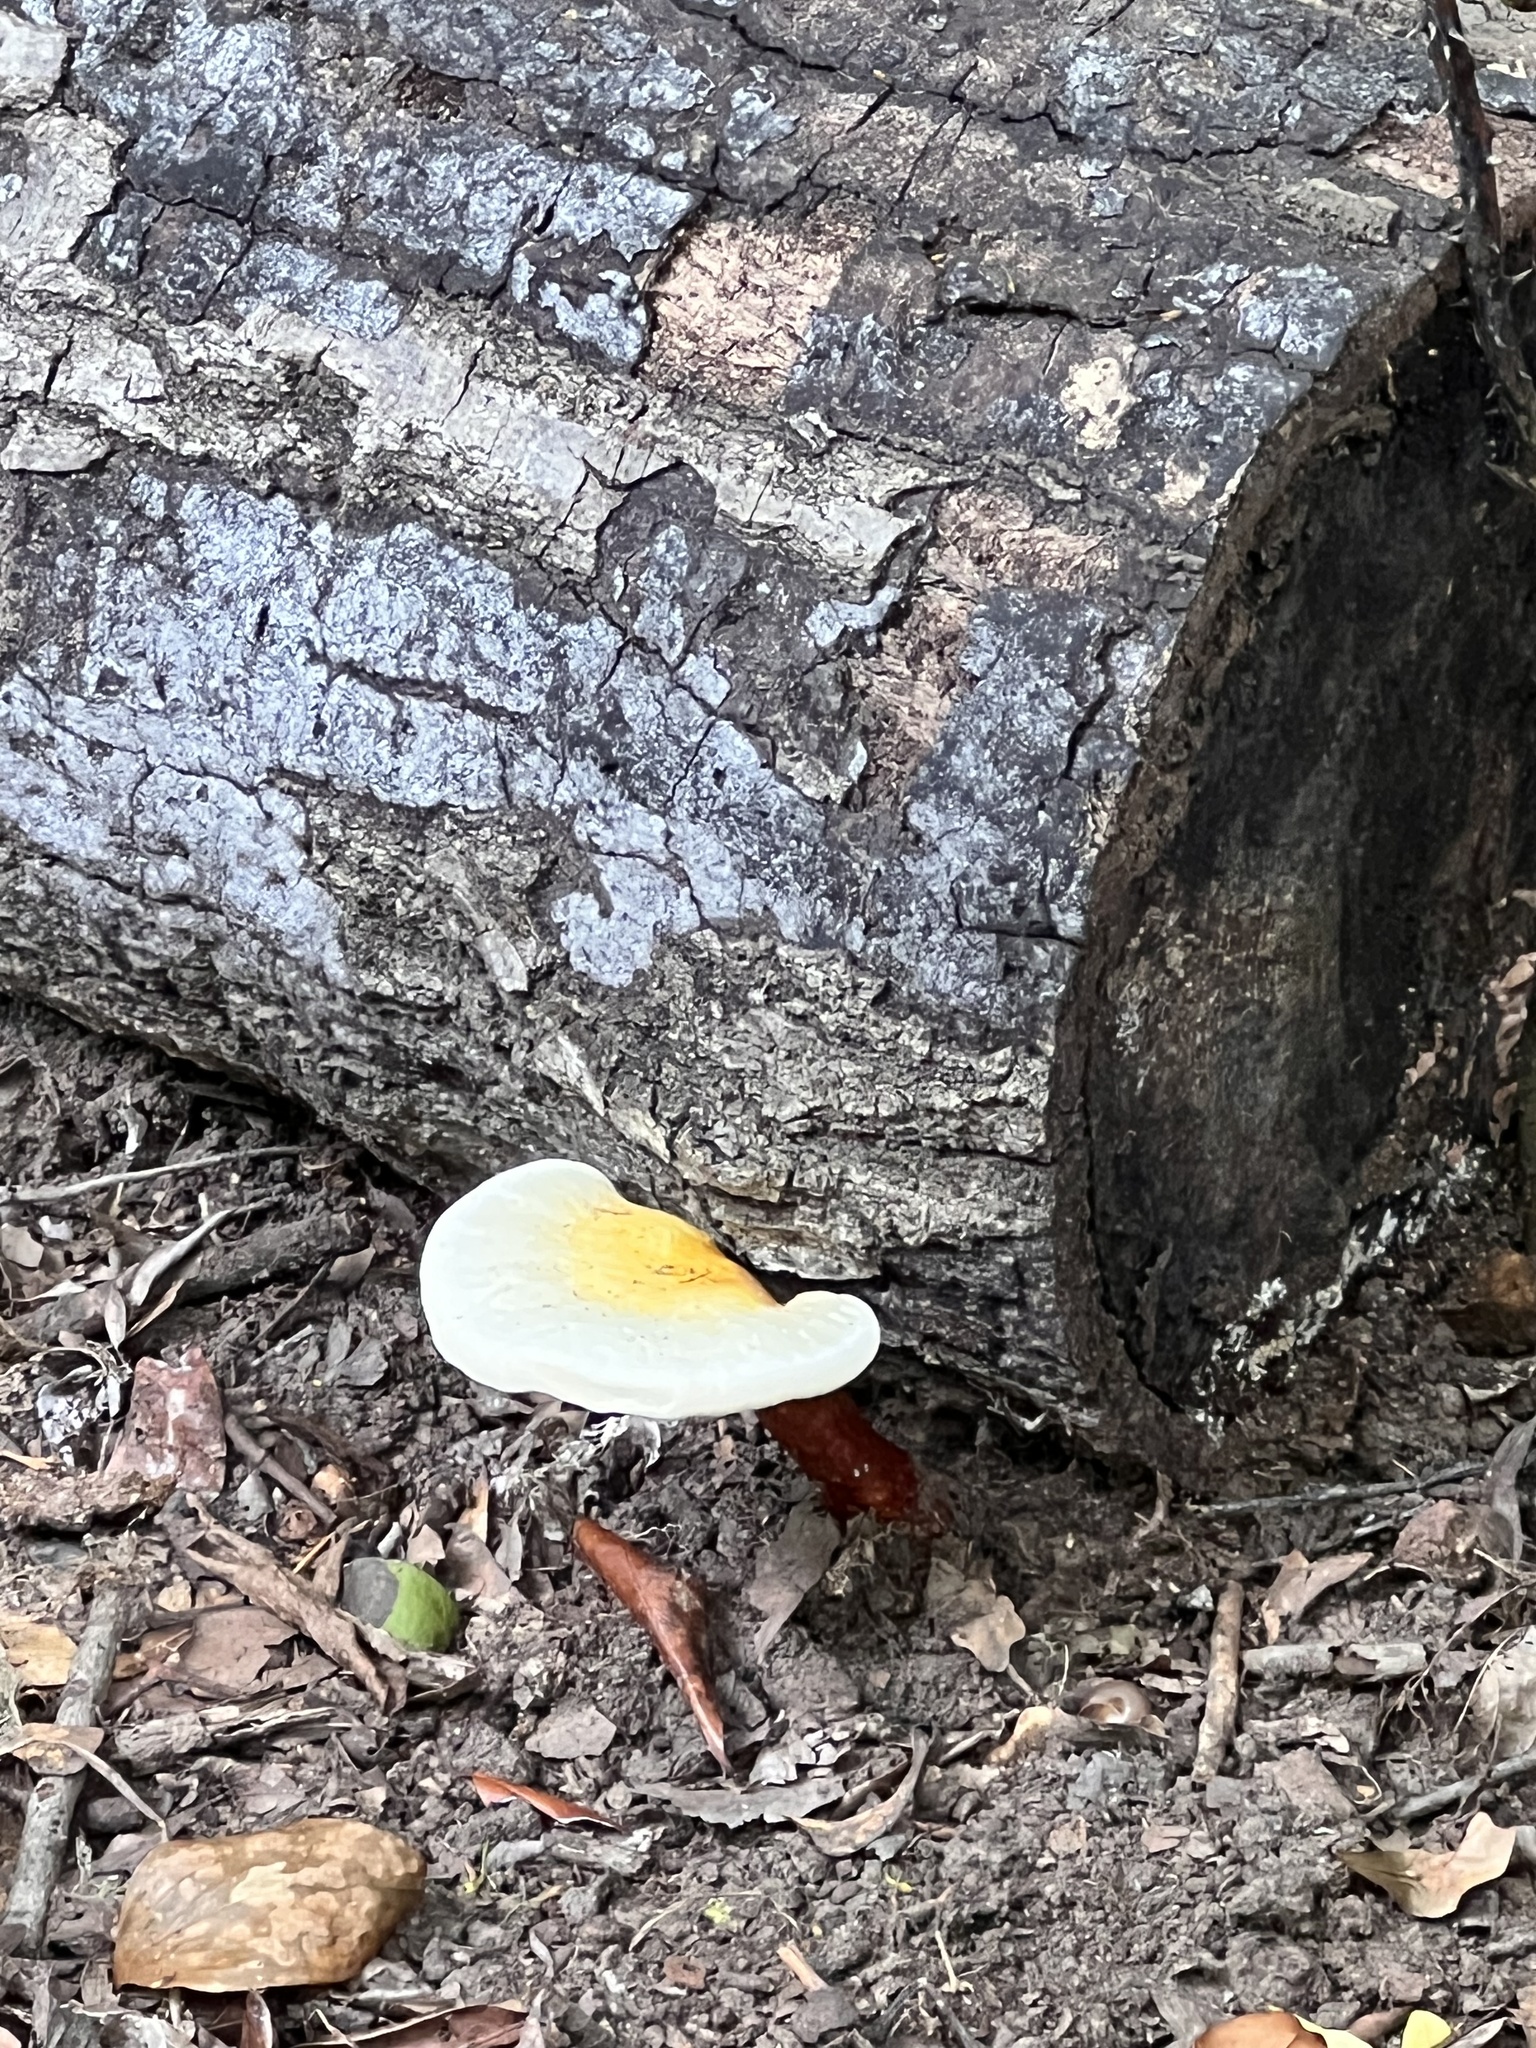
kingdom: Fungi
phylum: Basidiomycota
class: Agaricomycetes
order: Polyporales
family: Polyporaceae
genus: Ganoderma
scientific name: Ganoderma tsugae
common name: Hemlock varnish shelf
